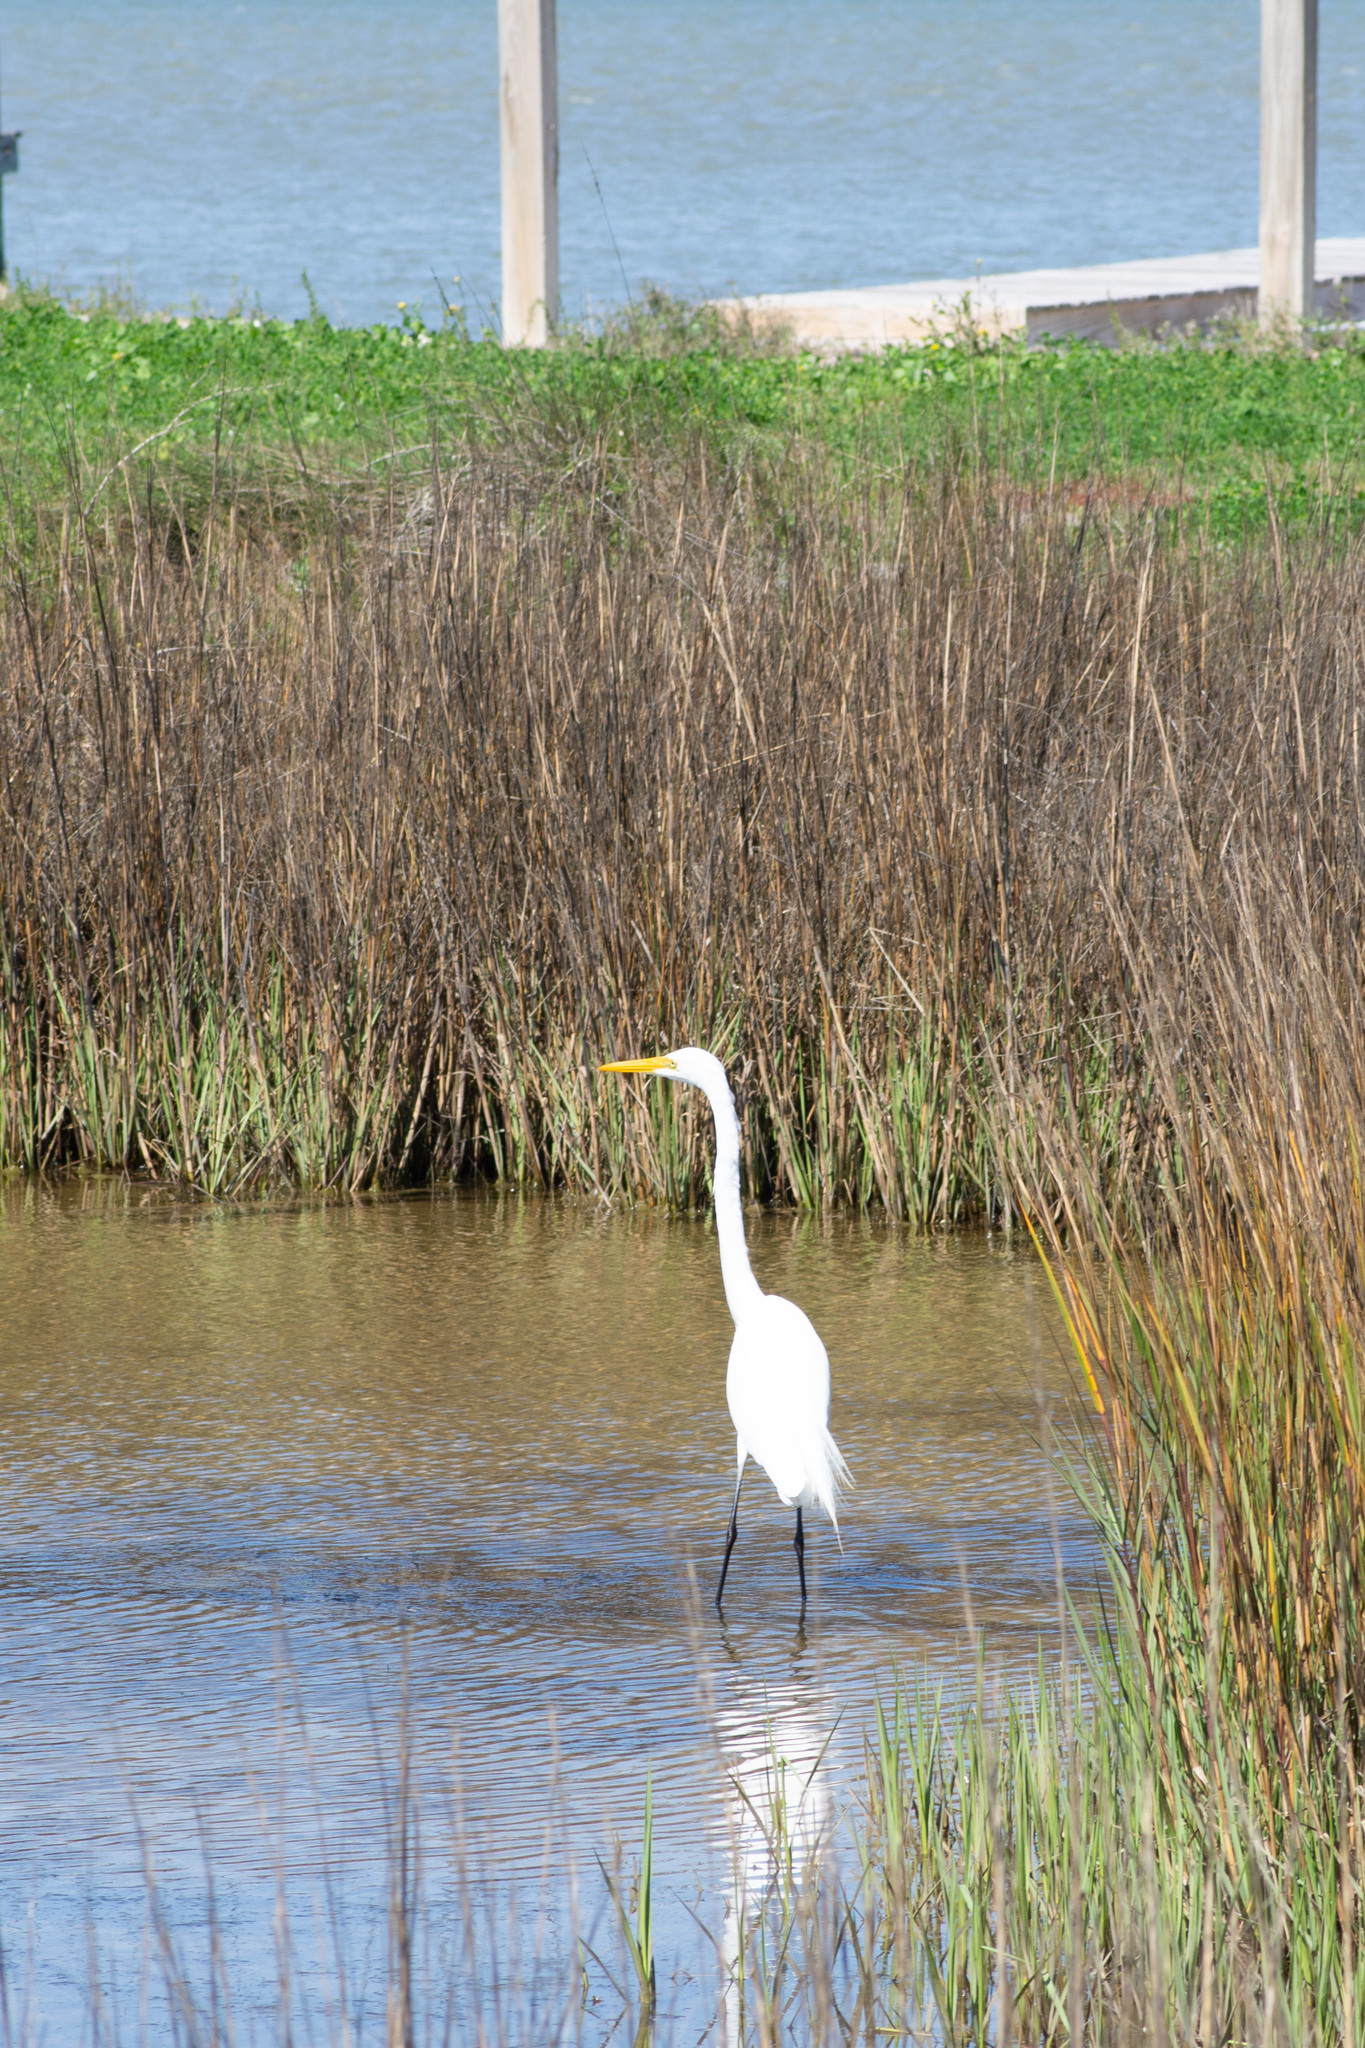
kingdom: Animalia
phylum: Chordata
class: Aves
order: Pelecaniformes
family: Ardeidae
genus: Ardea
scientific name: Ardea alba
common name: Great egret
